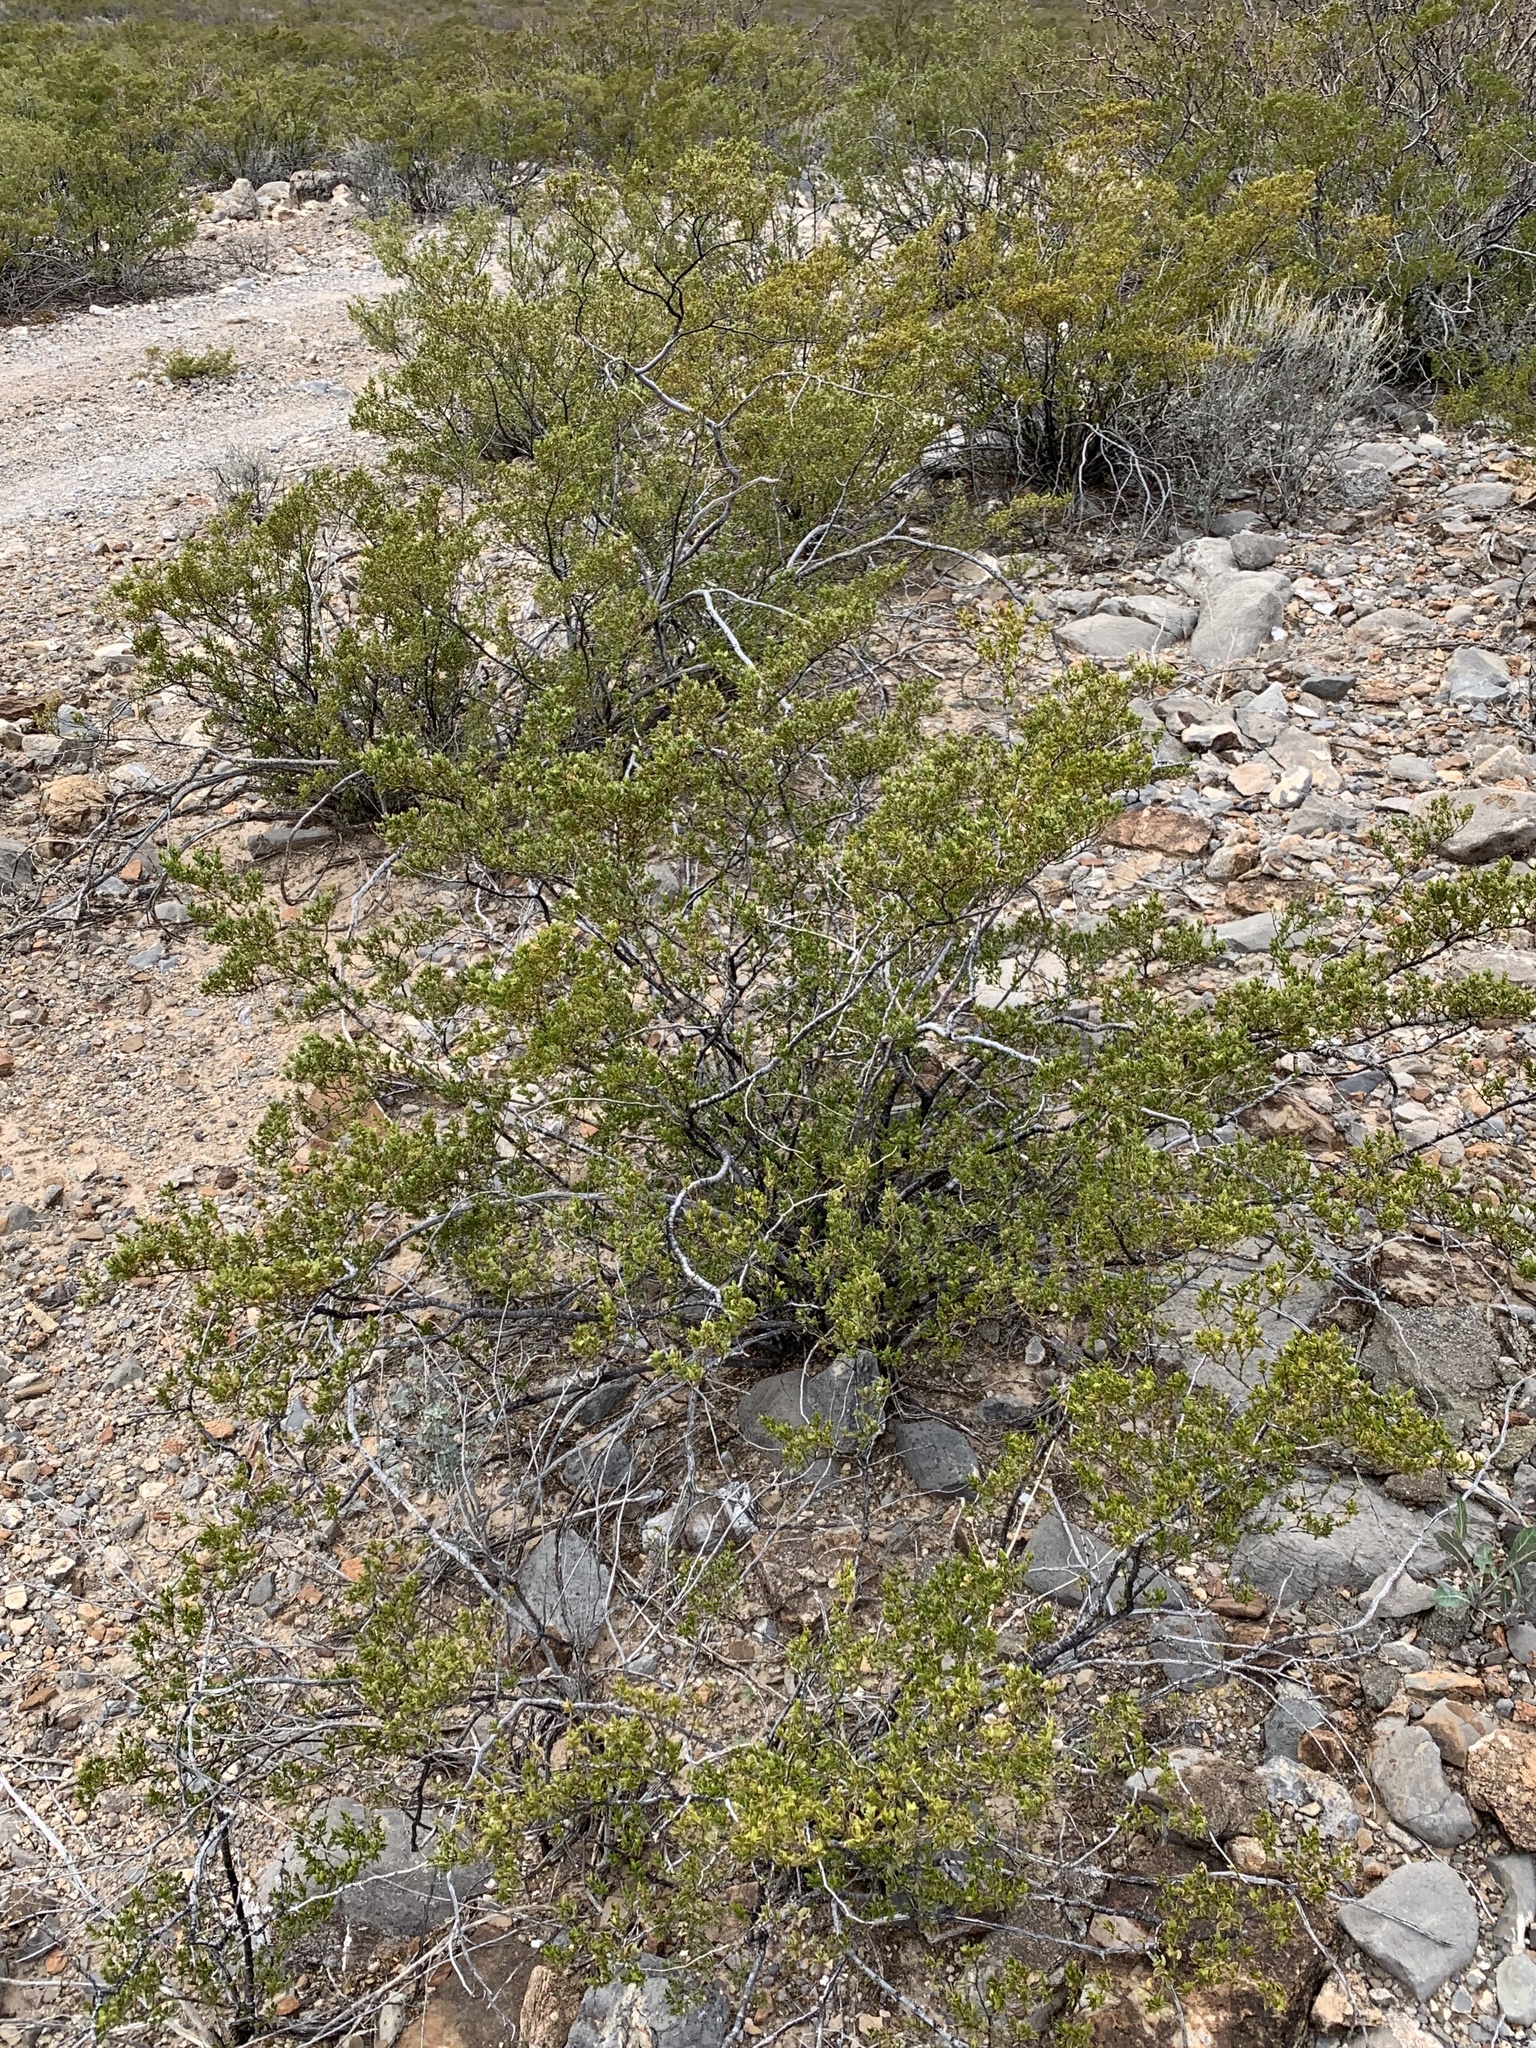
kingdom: Plantae
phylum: Tracheophyta
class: Magnoliopsida
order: Zygophyllales
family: Zygophyllaceae
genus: Larrea
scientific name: Larrea tridentata
